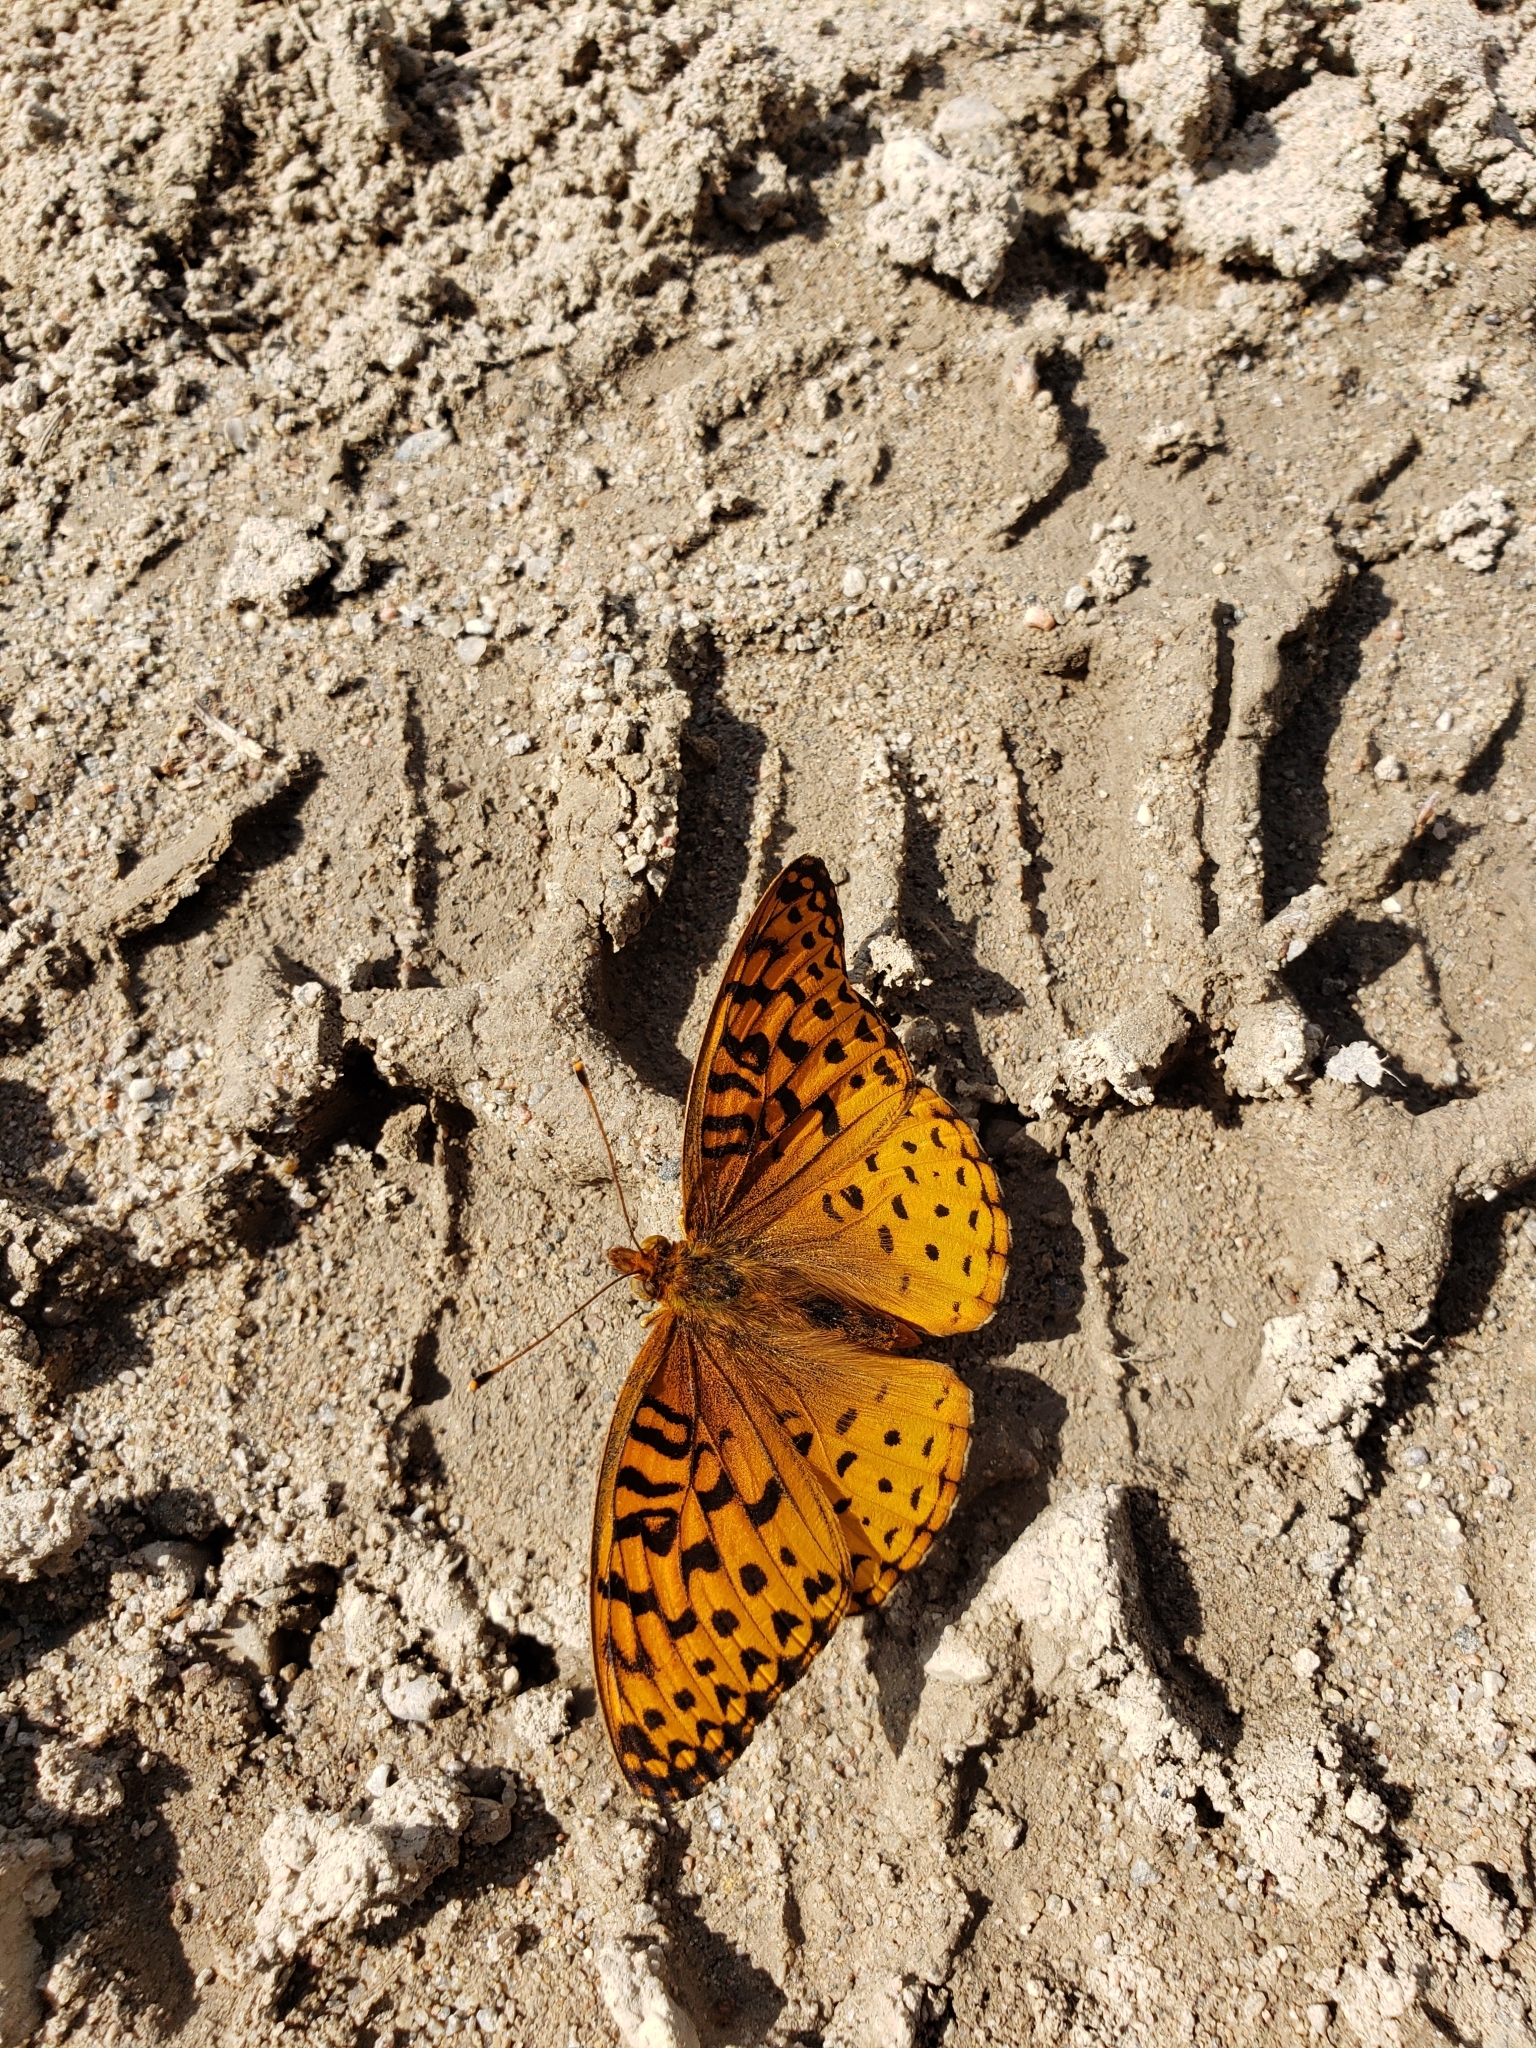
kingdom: Animalia
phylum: Arthropoda
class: Insecta
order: Lepidoptera
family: Nymphalidae
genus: Speyeria
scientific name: Speyeria aphrodite
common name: Aphrodite friitllary
